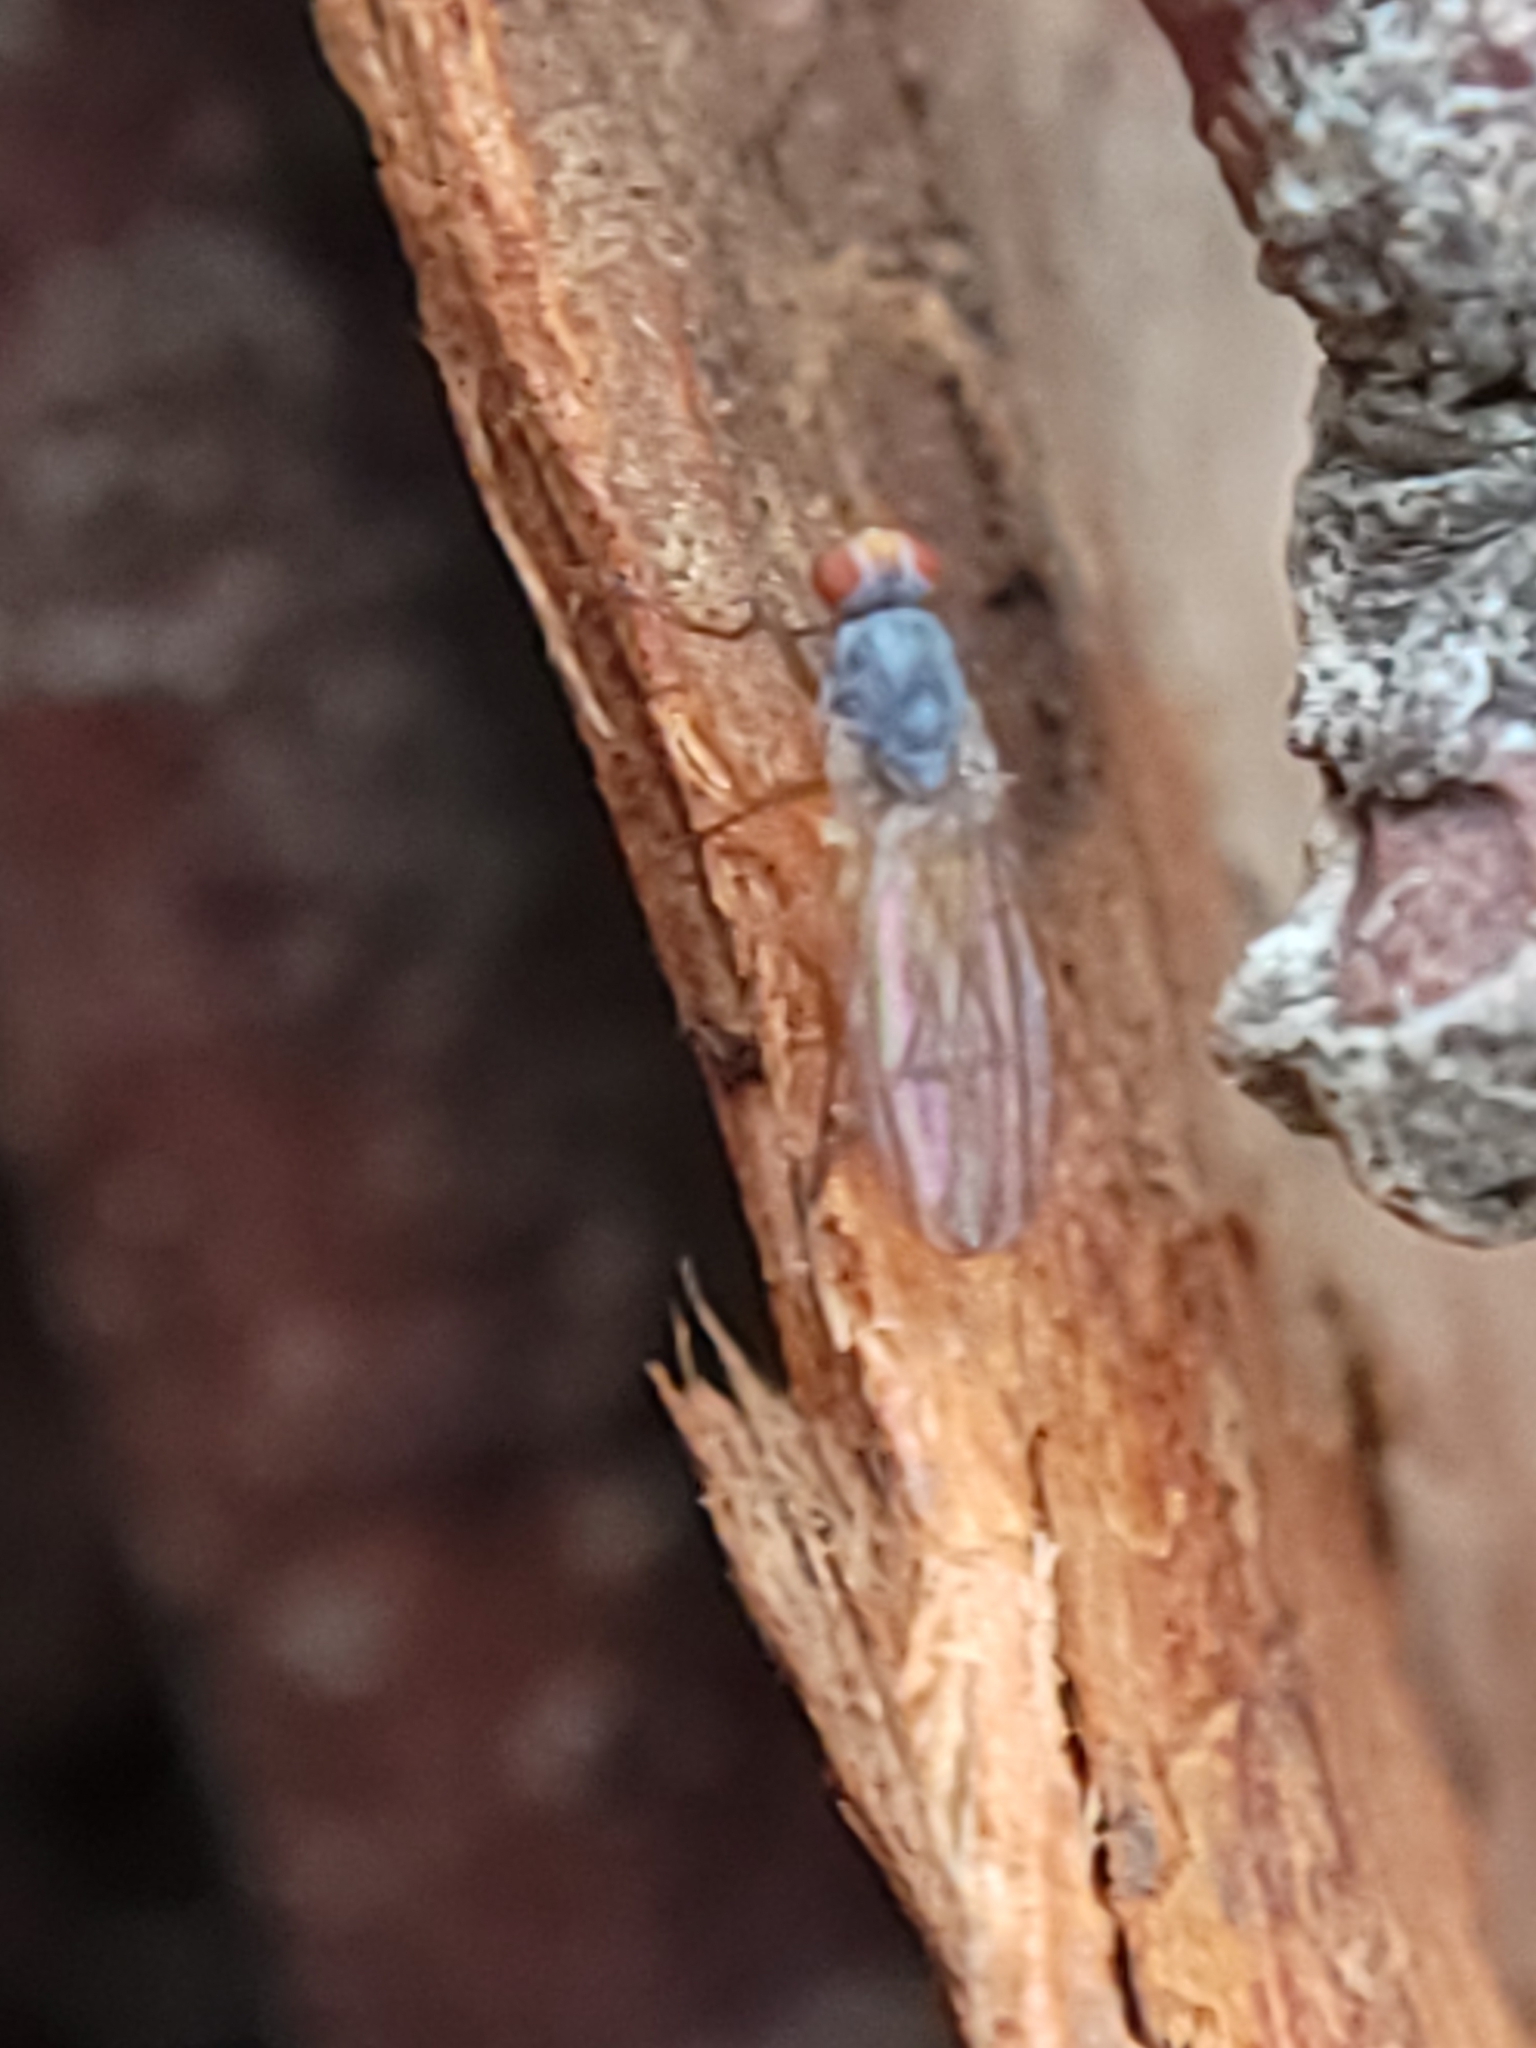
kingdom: Animalia
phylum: Arthropoda
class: Insecta
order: Diptera
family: Heleomyzidae
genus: Tephrochlamys
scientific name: Tephrochlamys rufiventris
